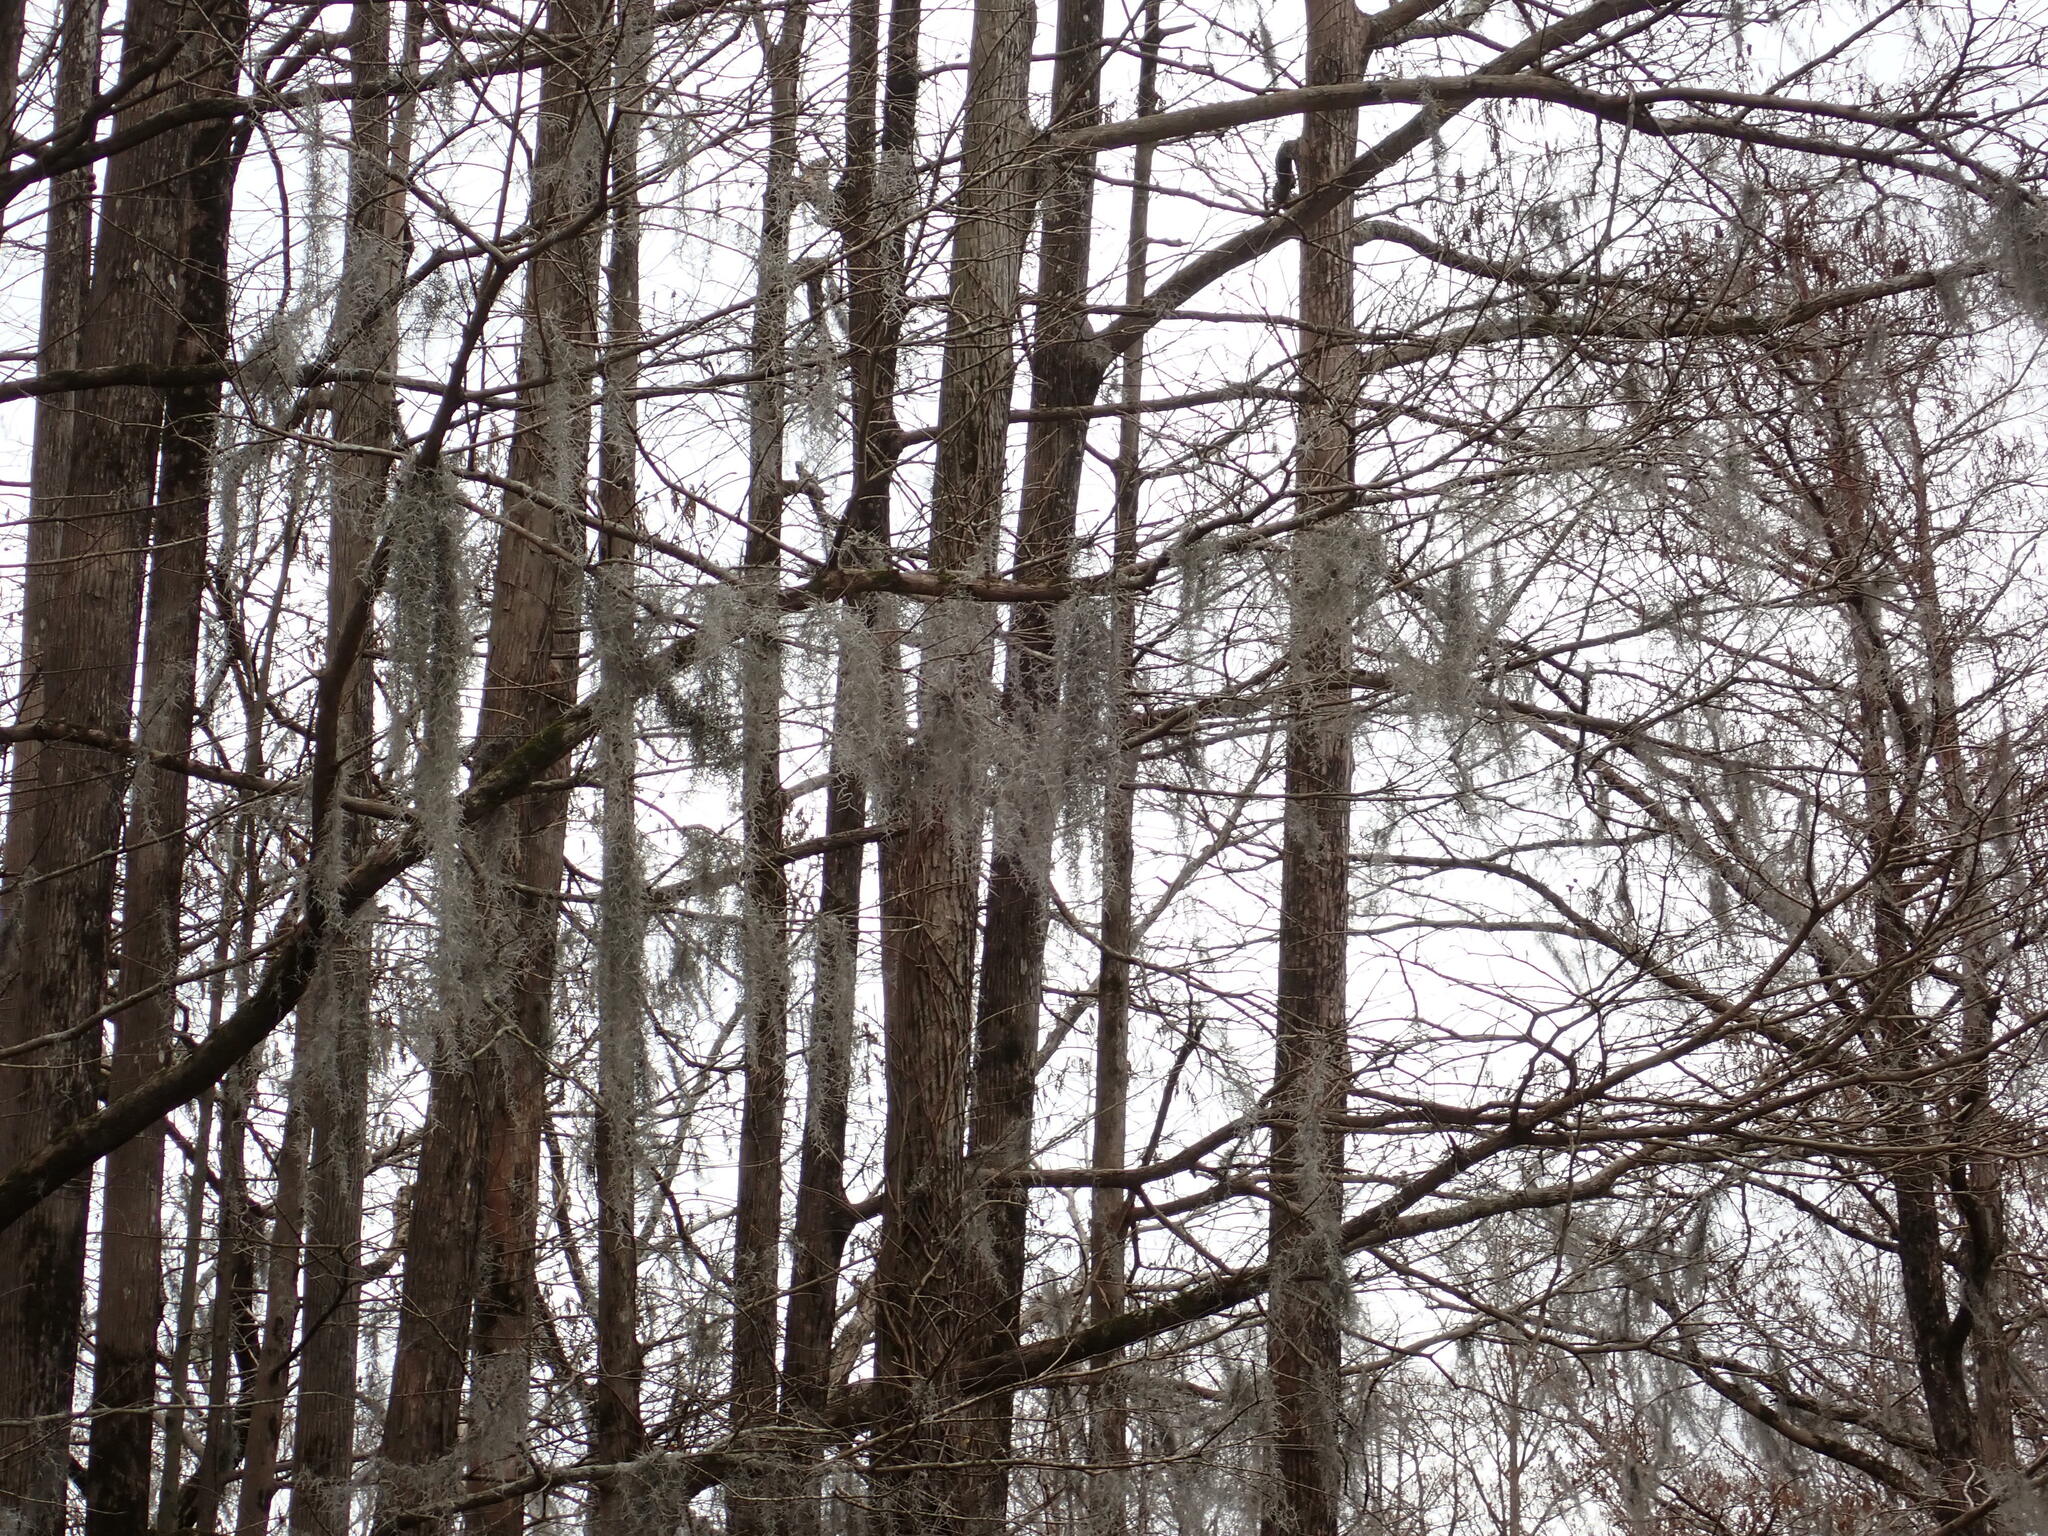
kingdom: Plantae
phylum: Tracheophyta
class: Liliopsida
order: Poales
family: Bromeliaceae
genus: Tillandsia
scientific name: Tillandsia usneoides
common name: Spanish moss
